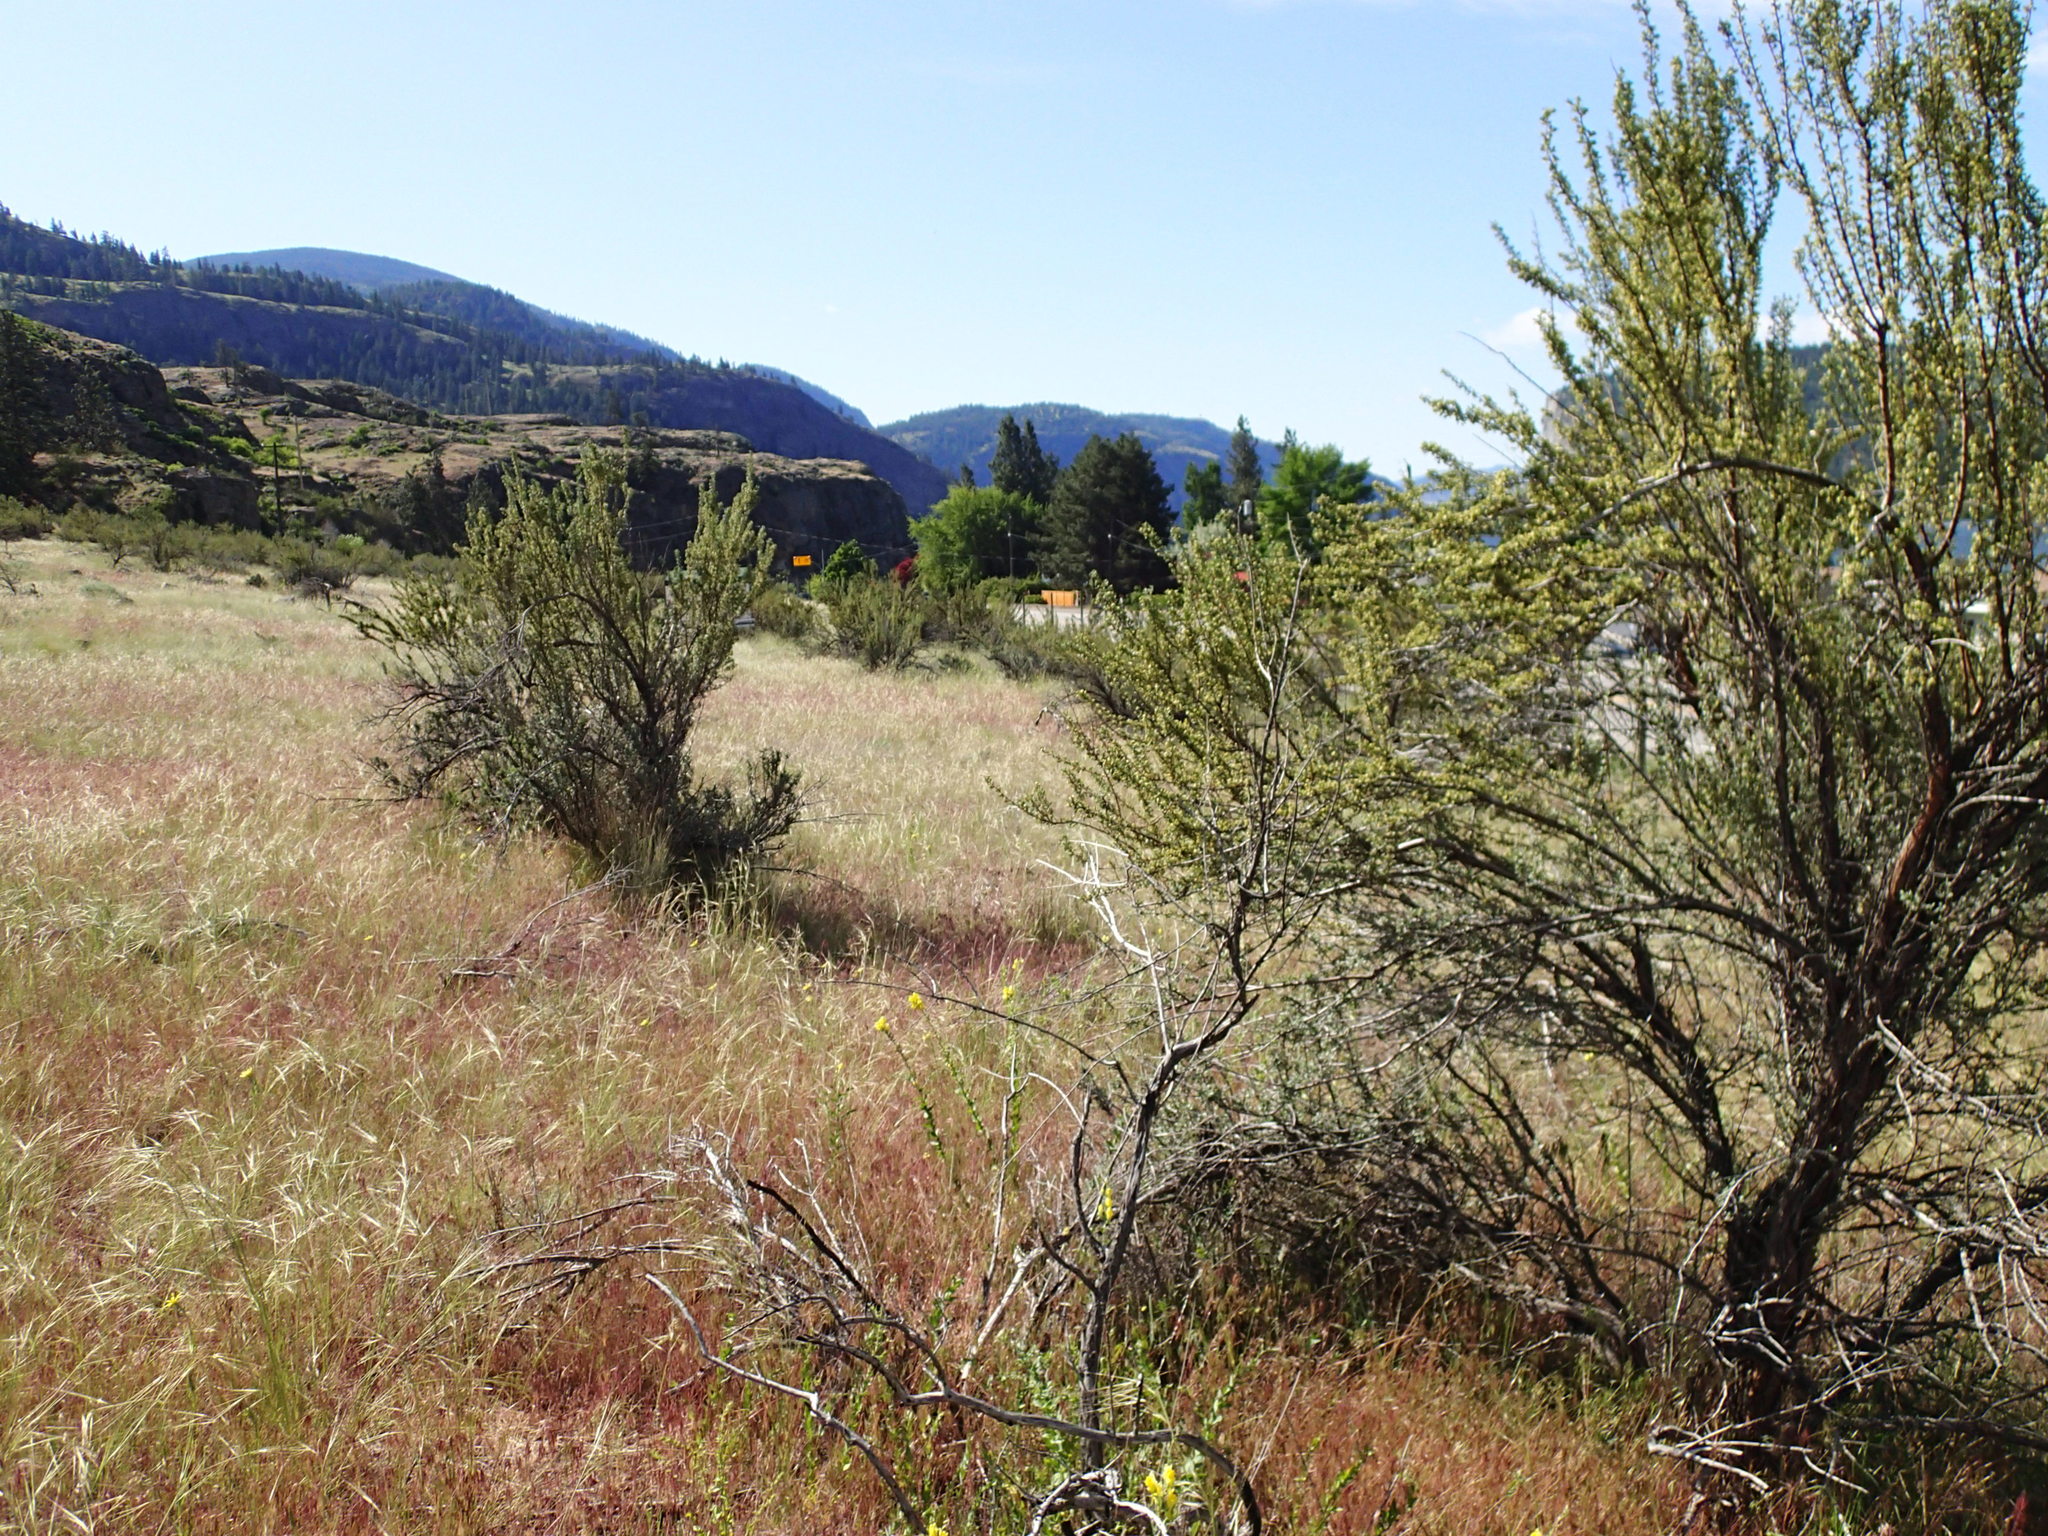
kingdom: Plantae
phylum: Tracheophyta
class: Magnoliopsida
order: Rosales
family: Rosaceae
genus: Purshia
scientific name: Purshia tridentata
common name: Antelope bitterbrush
